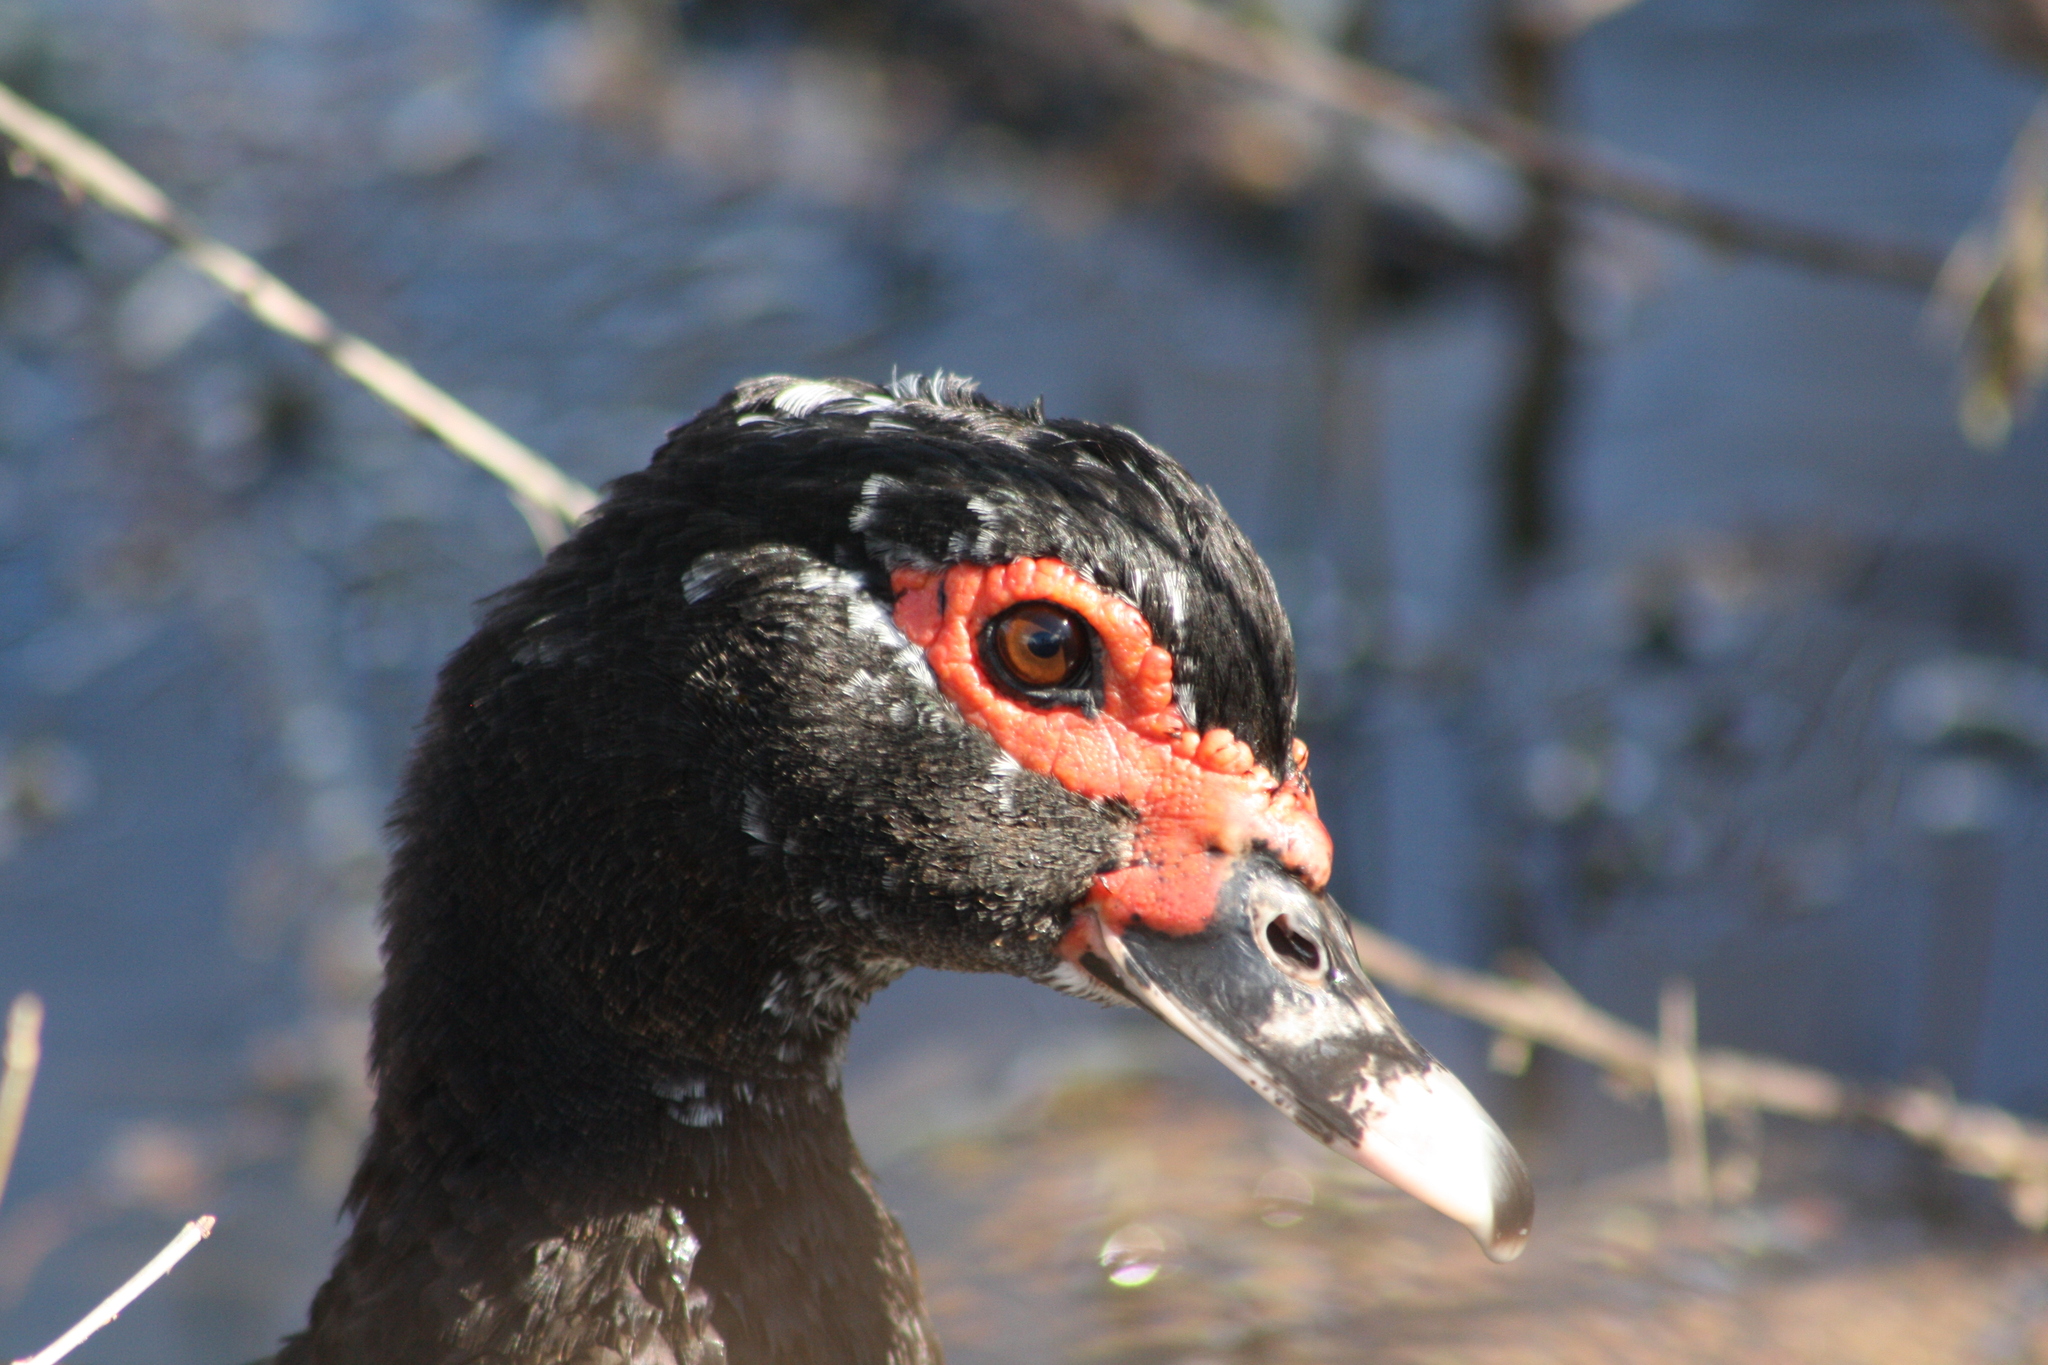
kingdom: Animalia
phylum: Chordata
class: Aves
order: Anseriformes
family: Anatidae
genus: Cairina
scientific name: Cairina moschata
